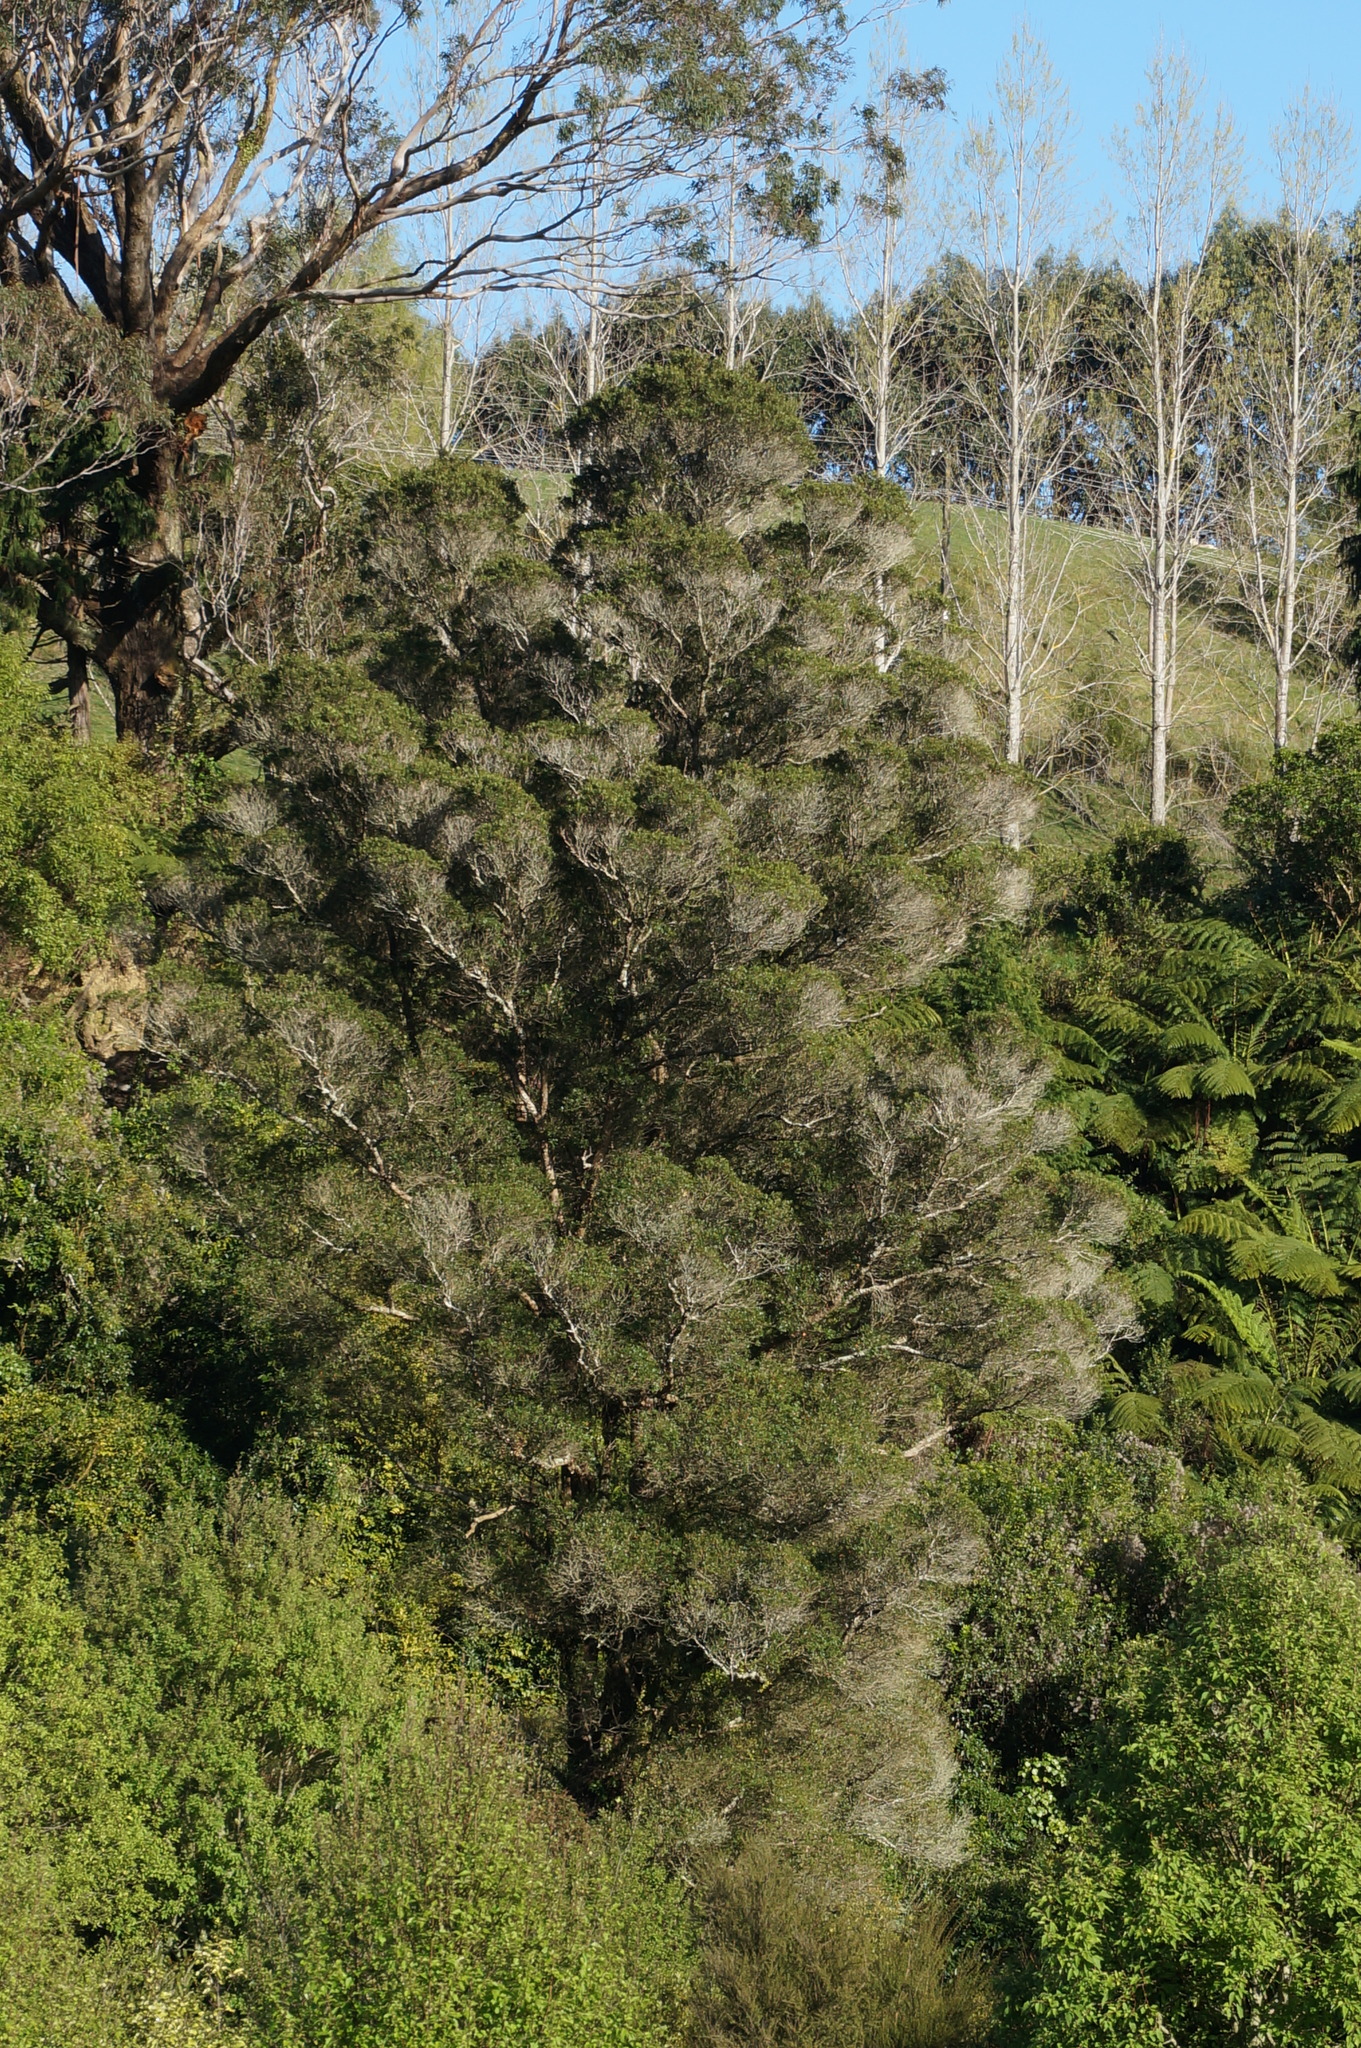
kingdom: Plantae
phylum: Tracheophyta
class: Magnoliopsida
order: Myrtales
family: Myrtaceae
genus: Metrosideros
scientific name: Metrosideros robusta
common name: Northern rata
